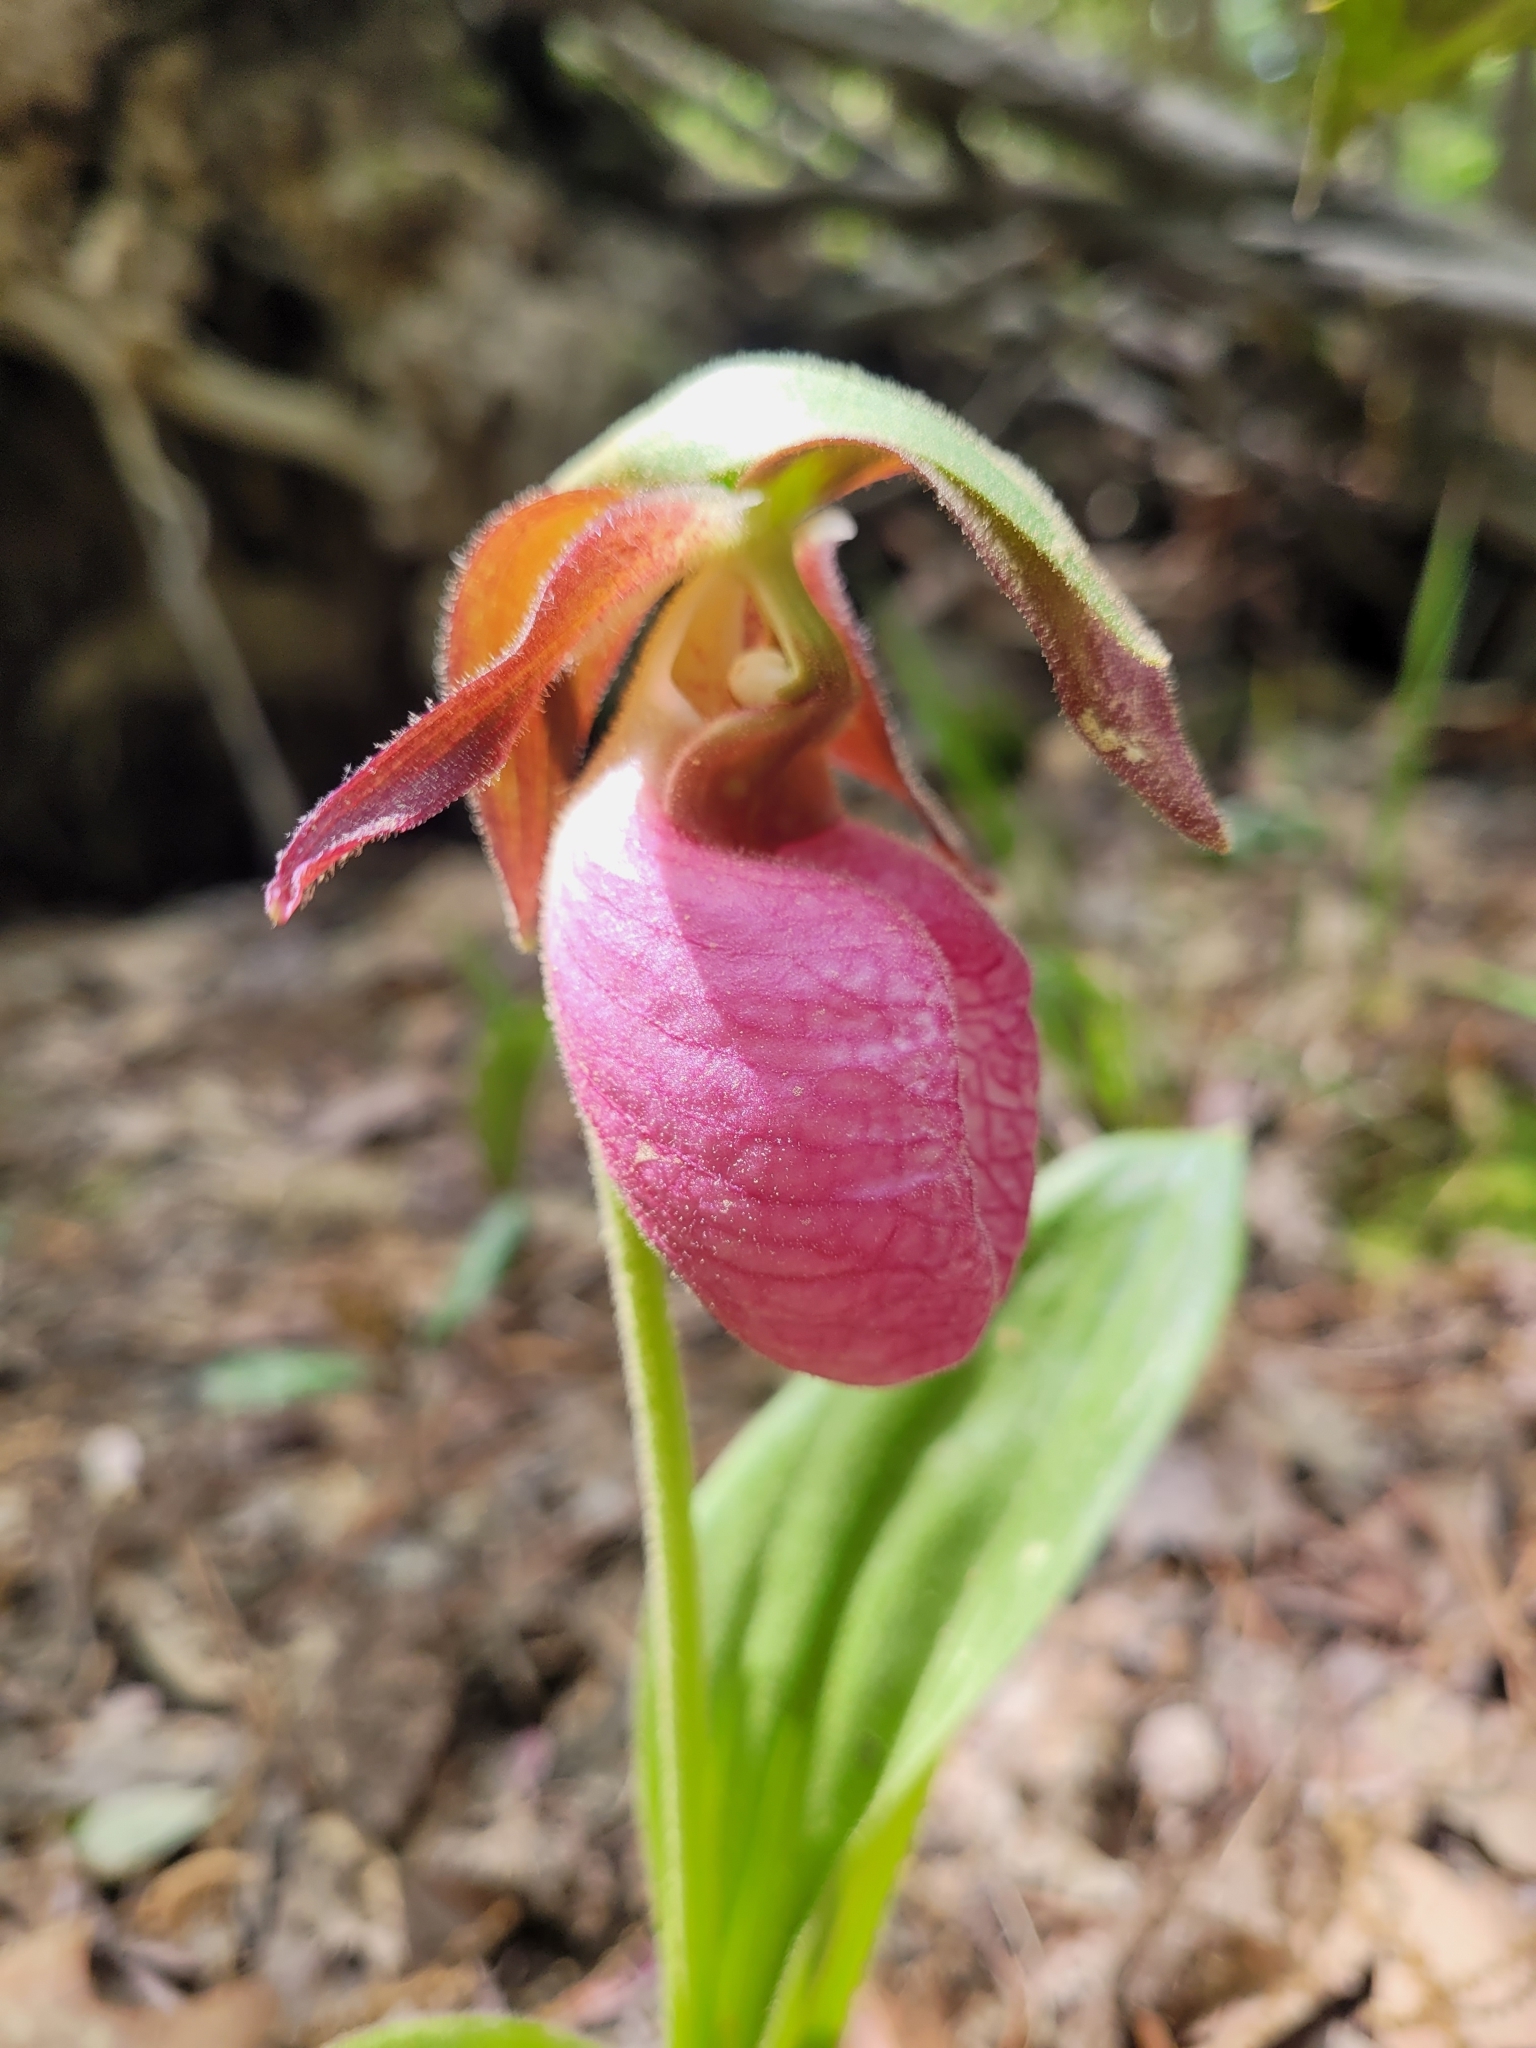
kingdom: Plantae
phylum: Tracheophyta
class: Liliopsida
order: Asparagales
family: Orchidaceae
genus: Cypripedium
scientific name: Cypripedium acaule
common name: Pink lady's-slipper
